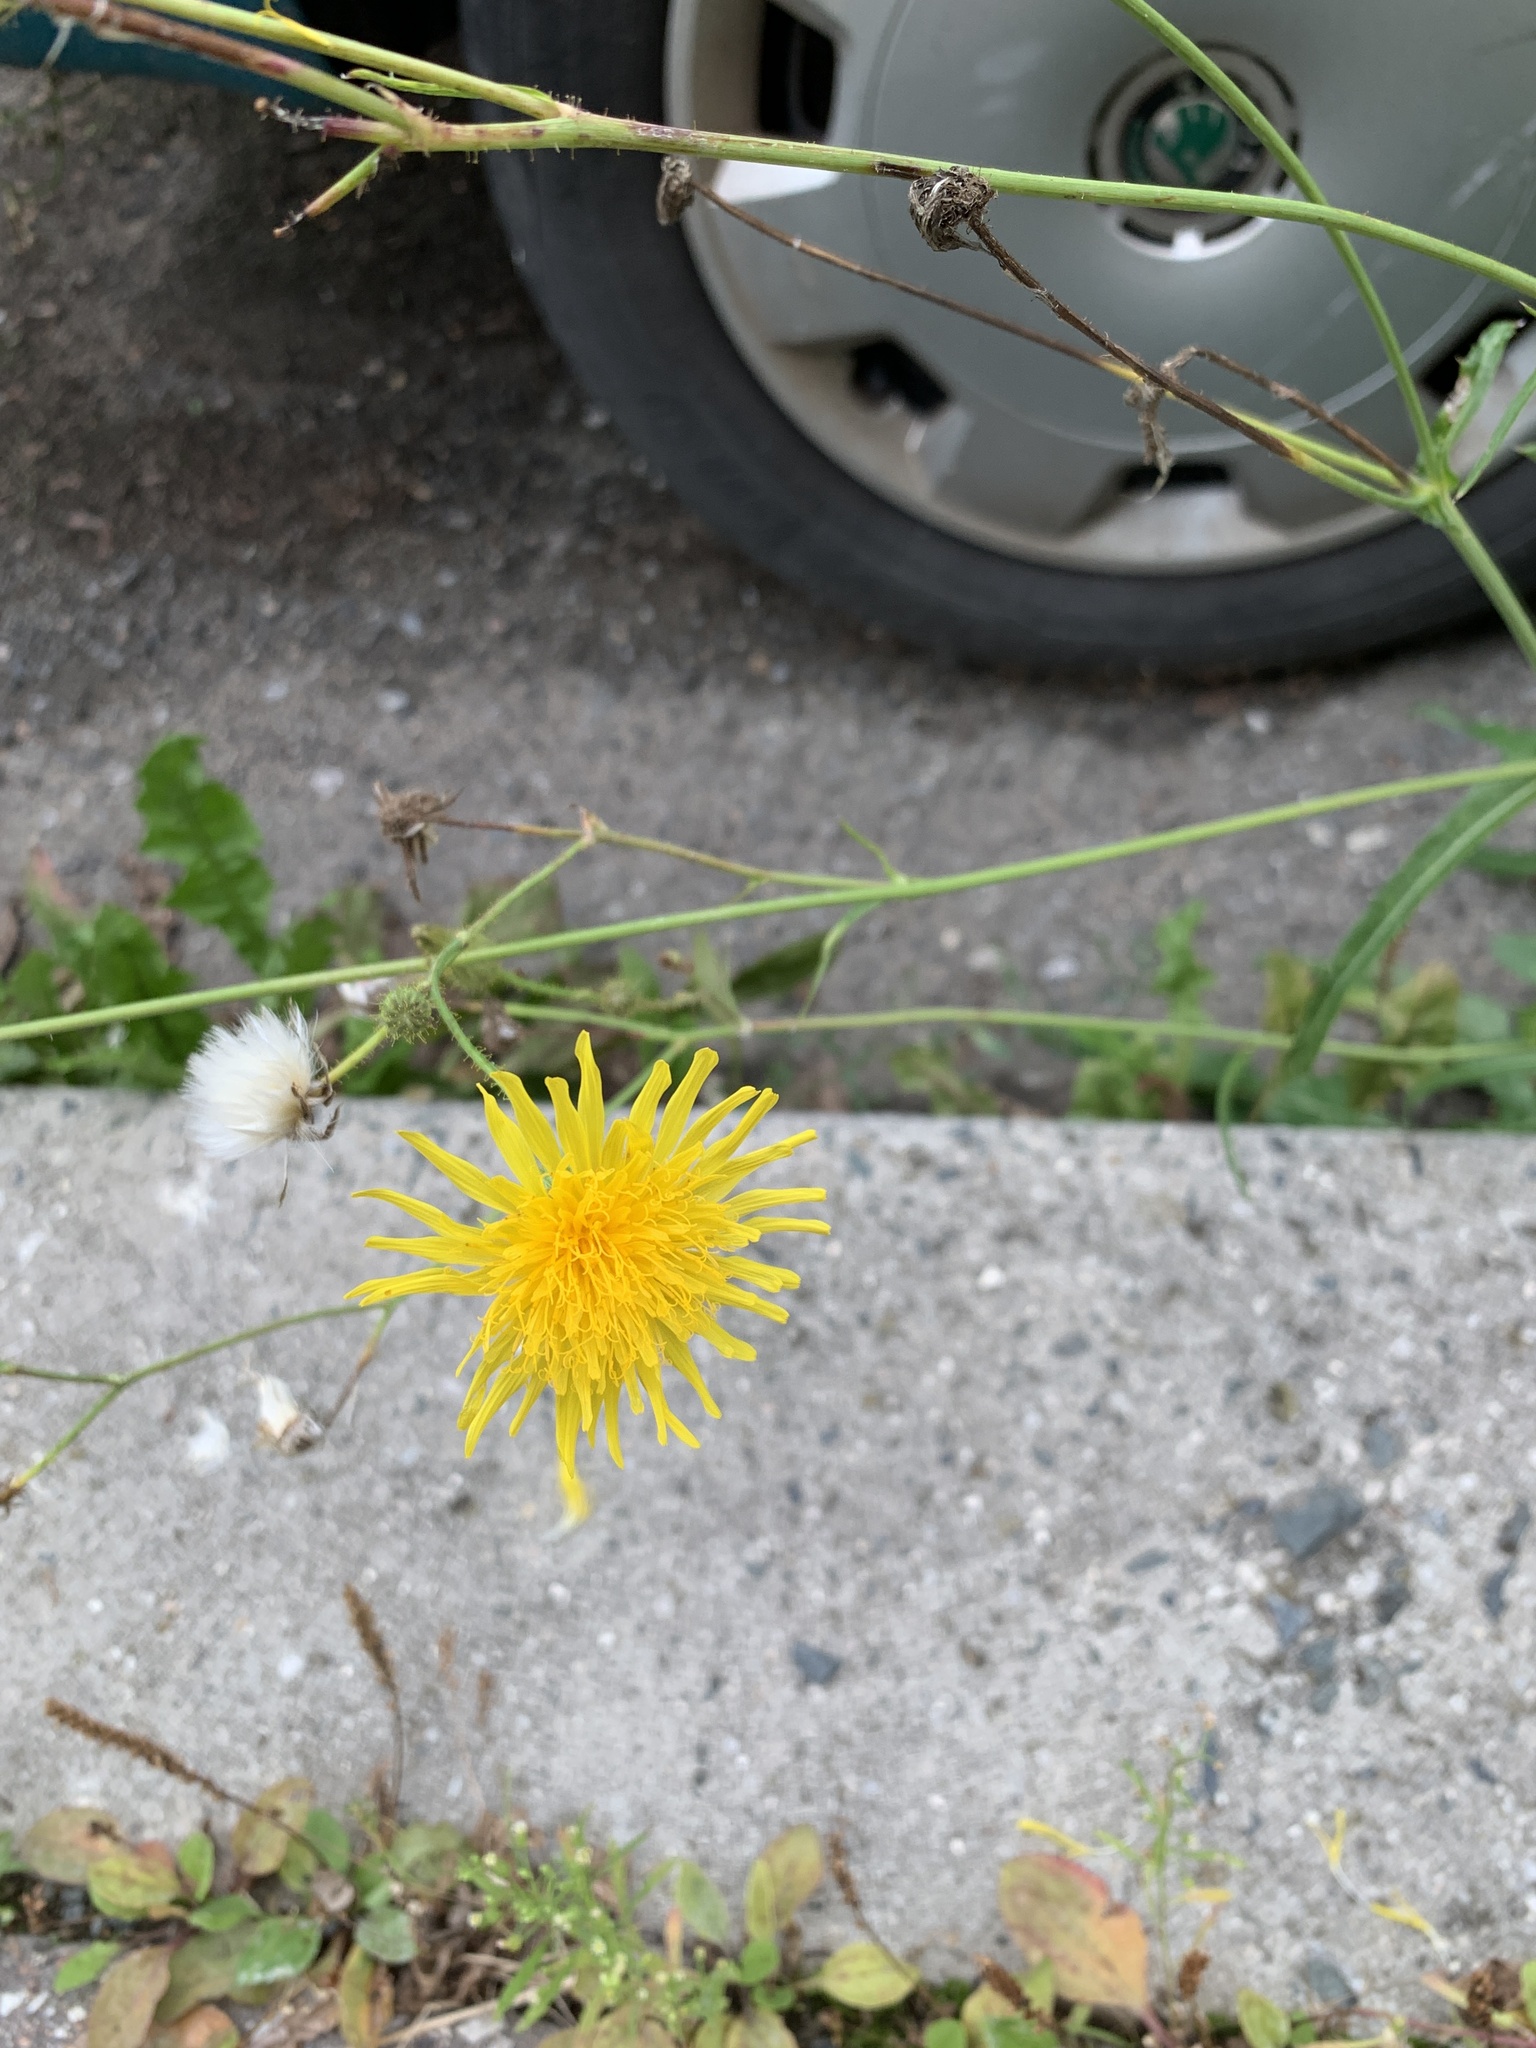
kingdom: Plantae
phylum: Tracheophyta
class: Magnoliopsida
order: Asterales
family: Asteraceae
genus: Sonchus
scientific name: Sonchus arvensis
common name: Perennial sow-thistle
